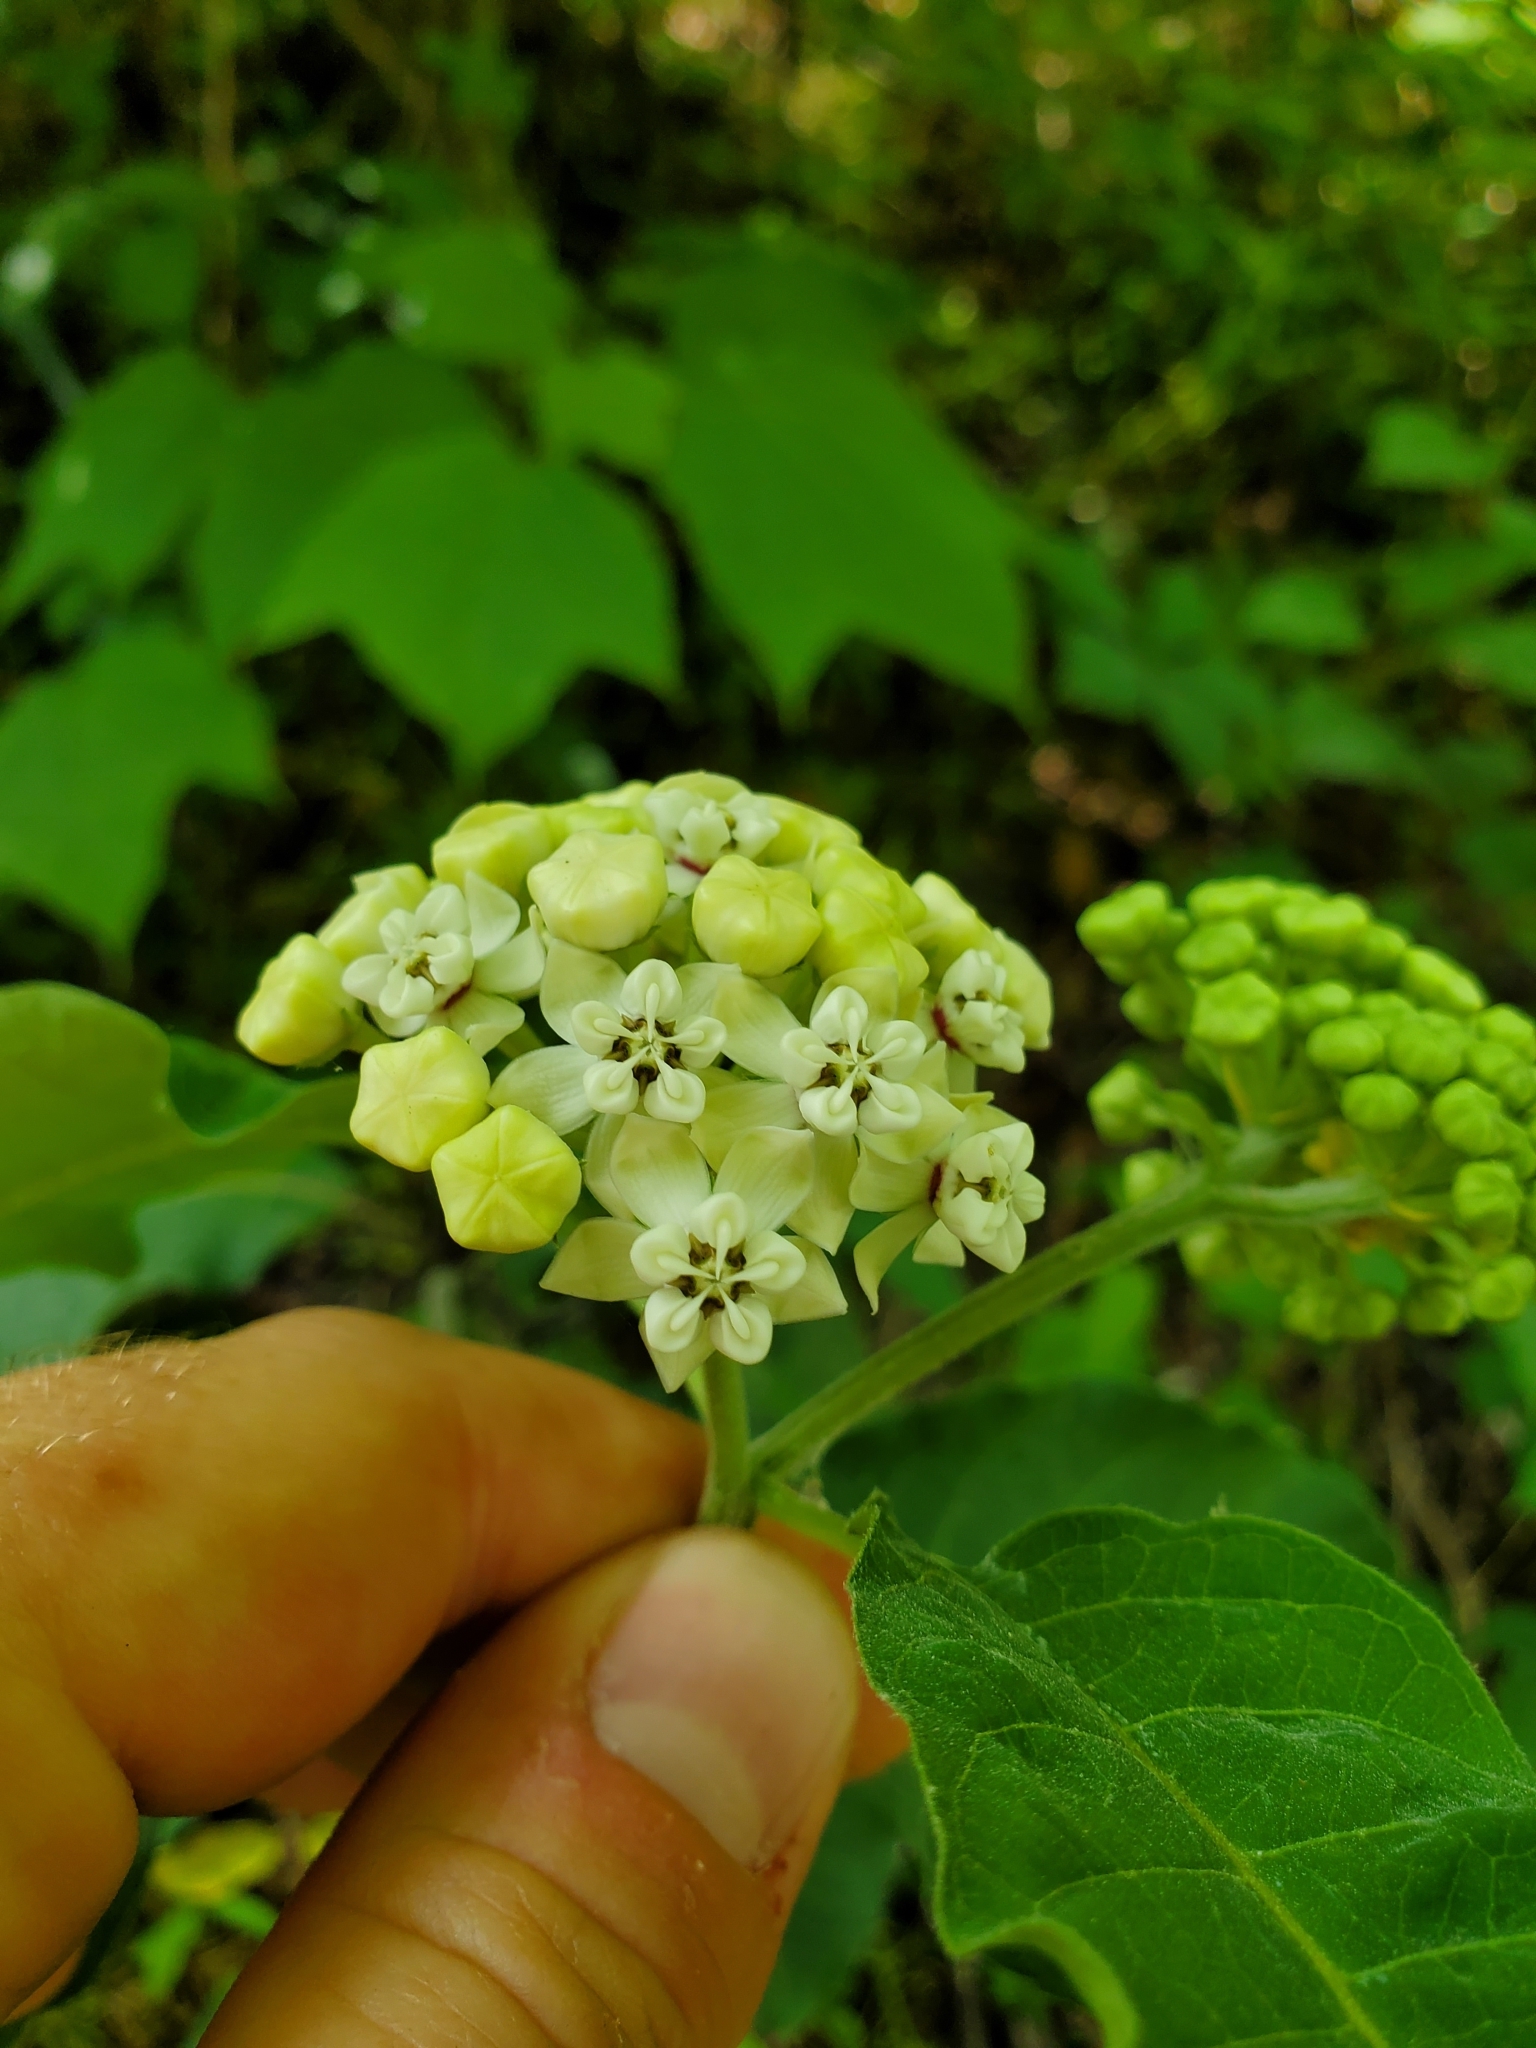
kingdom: Plantae
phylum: Tracheophyta
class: Magnoliopsida
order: Gentianales
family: Apocynaceae
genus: Asclepias
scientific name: Asclepias variegata
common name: Variegated milkweed
